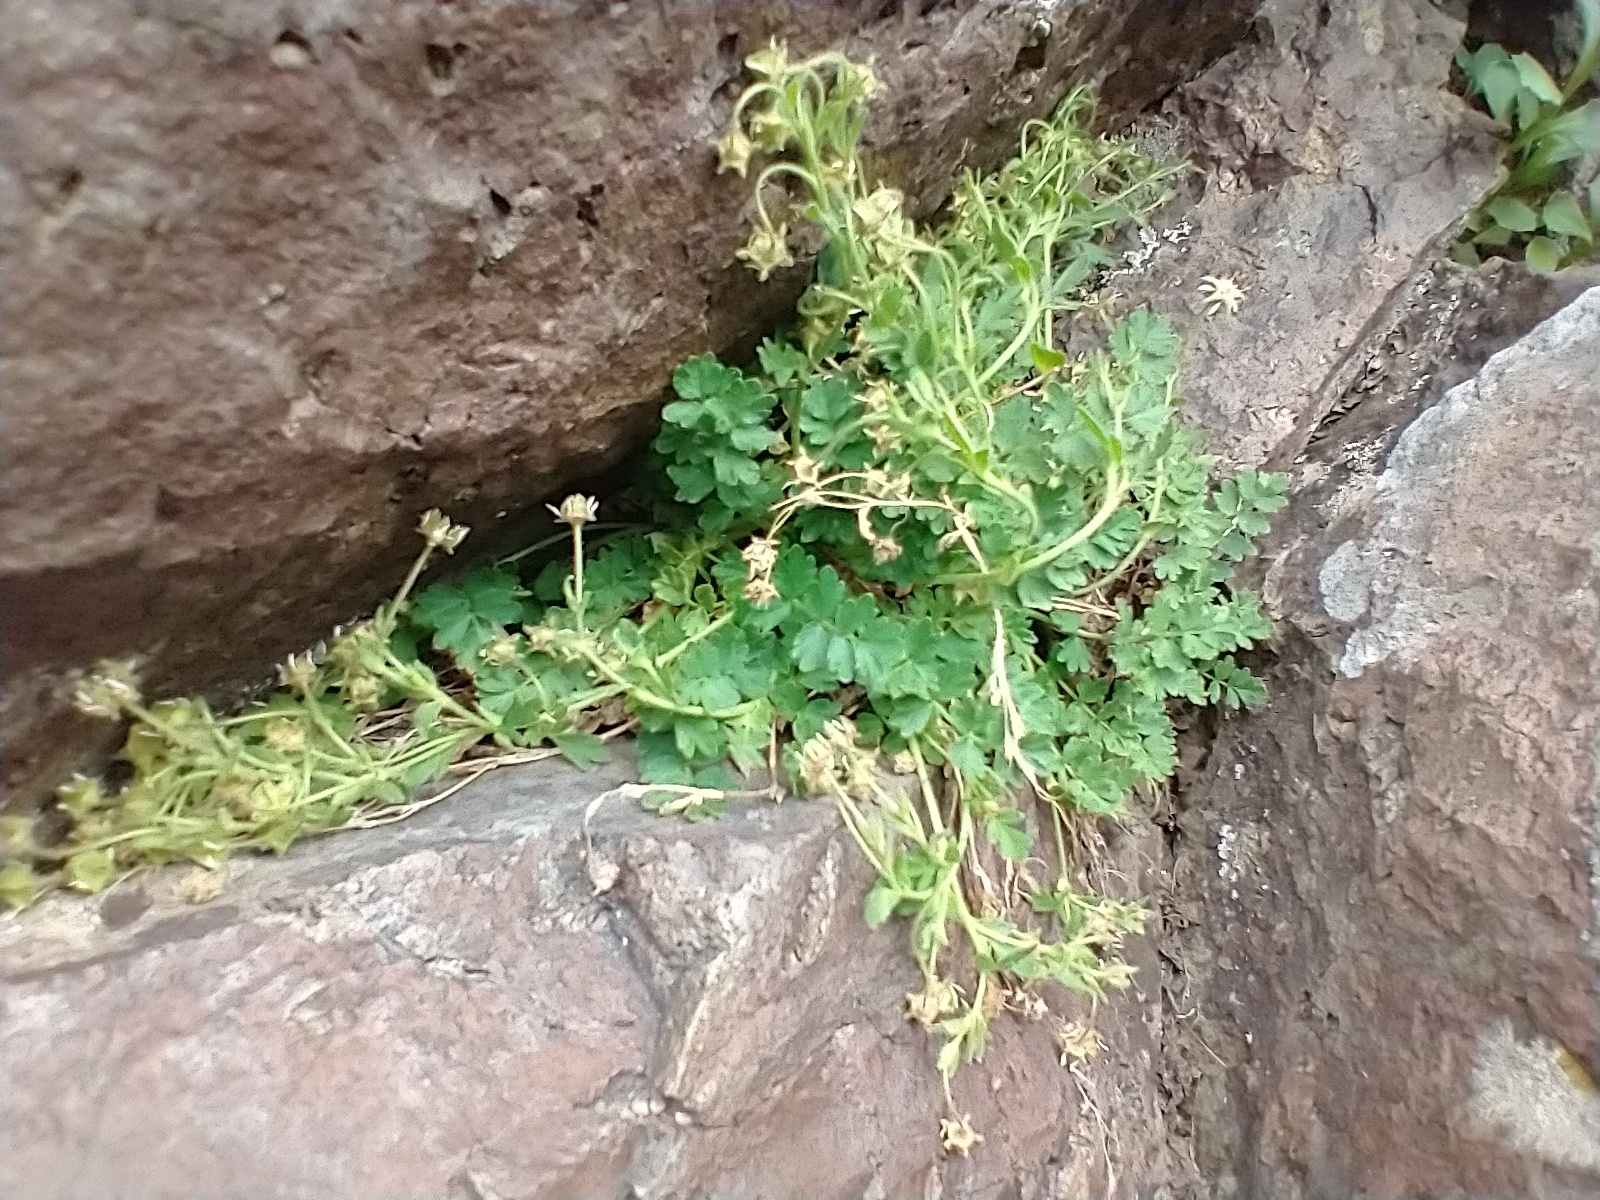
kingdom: Plantae
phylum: Tracheophyta
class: Magnoliopsida
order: Rosales
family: Rosaceae
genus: Potentilla
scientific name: Potentilla baileyi
